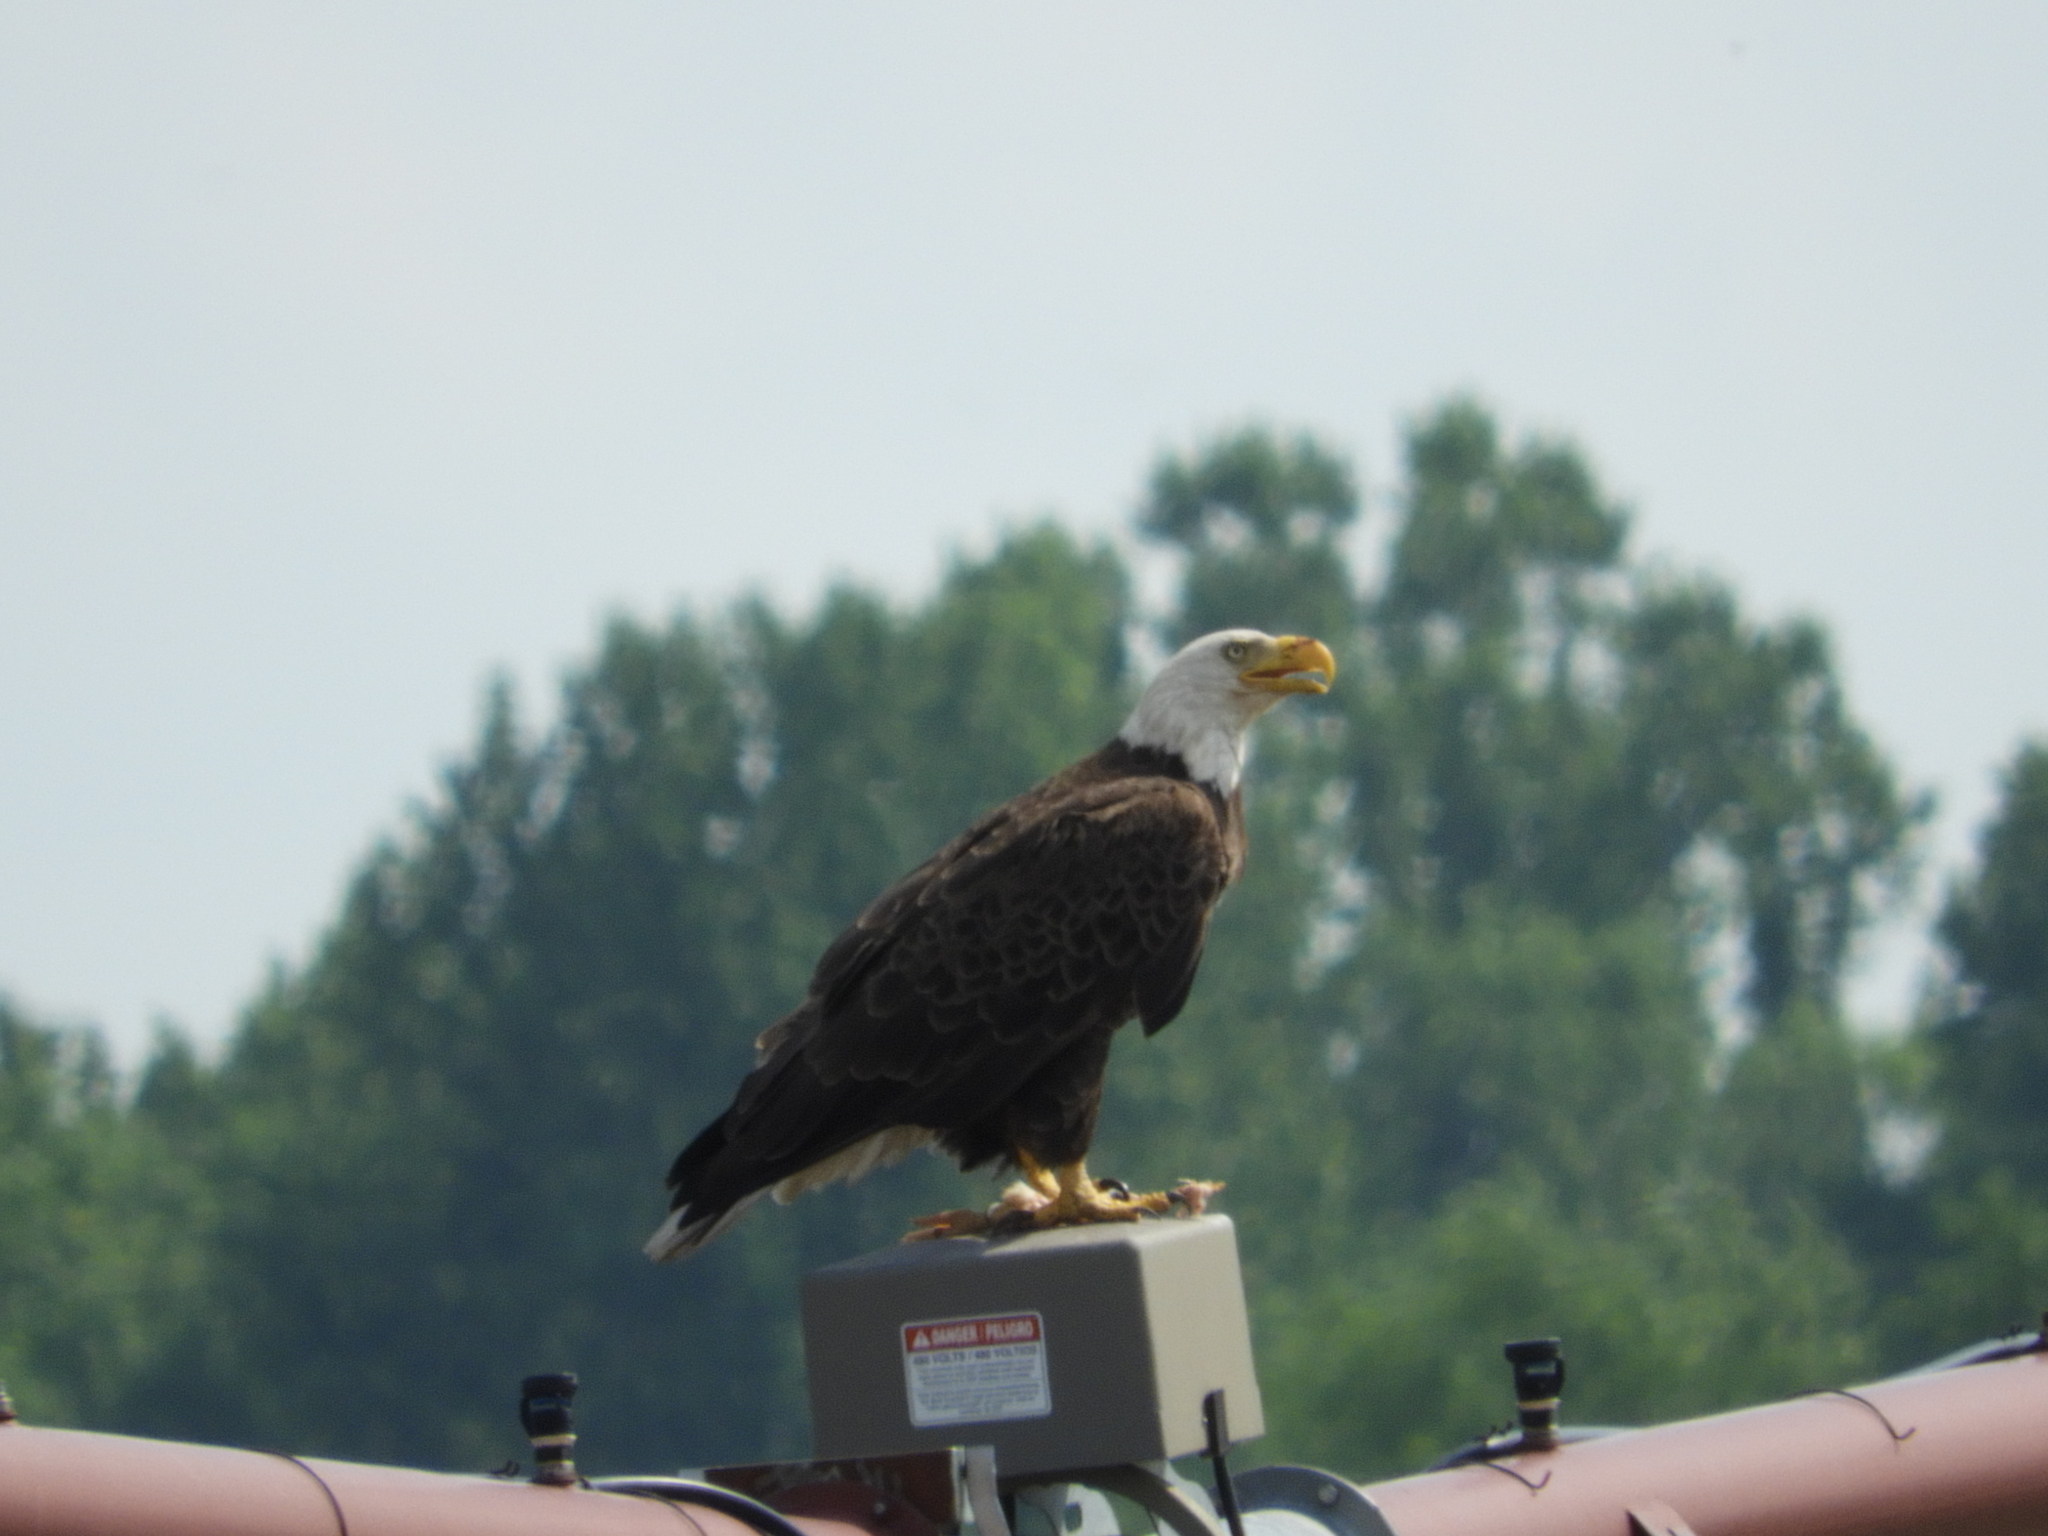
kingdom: Animalia
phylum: Chordata
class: Aves
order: Accipitriformes
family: Accipitridae
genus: Haliaeetus
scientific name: Haliaeetus leucocephalus
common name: Bald eagle
